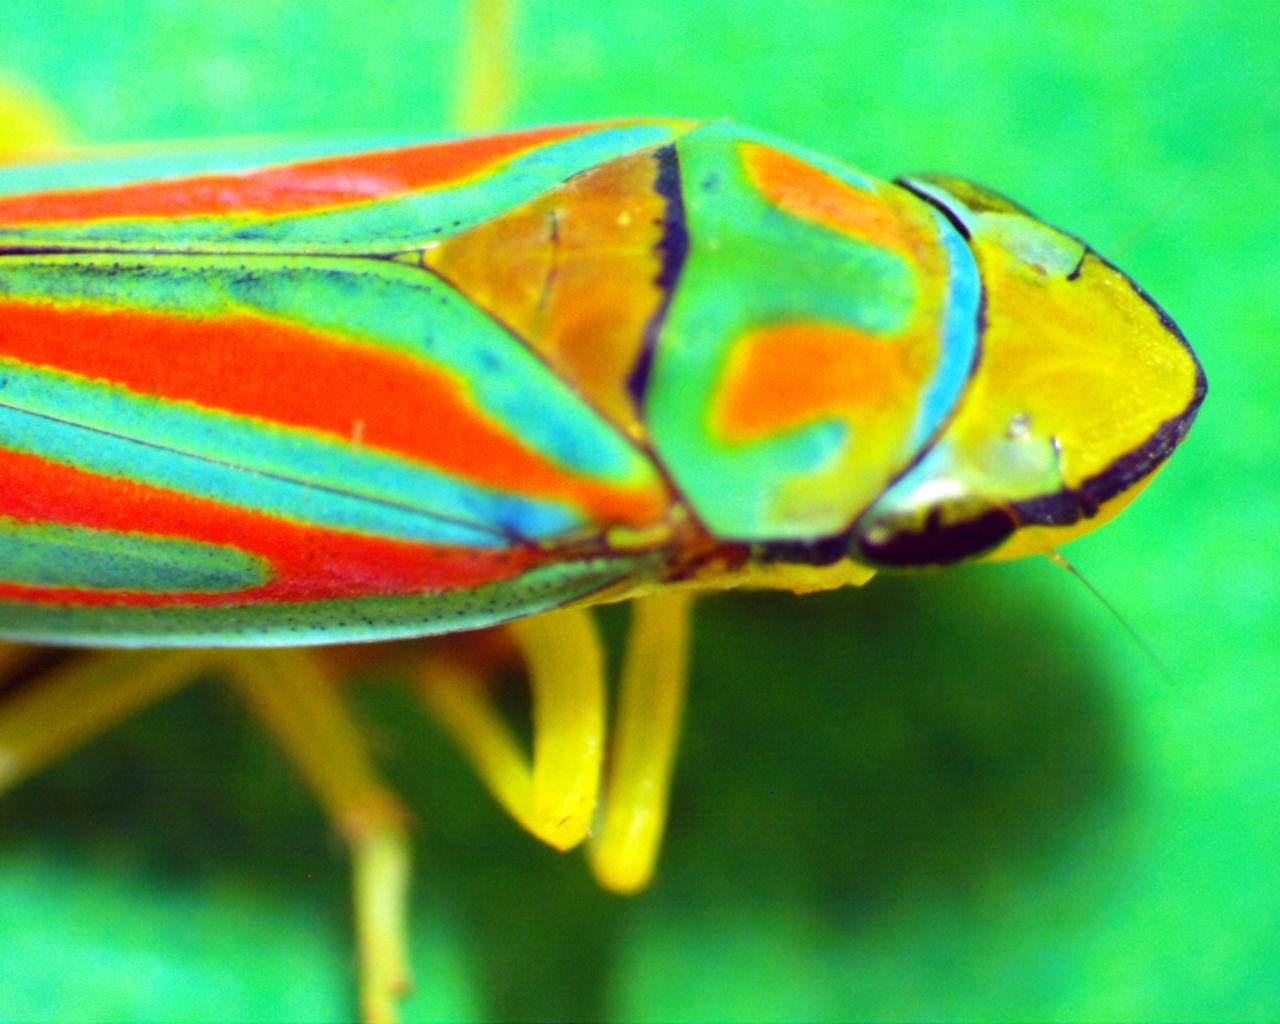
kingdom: Animalia
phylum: Arthropoda
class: Insecta
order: Hemiptera
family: Cicadellidae
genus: Graphocephala
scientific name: Graphocephala coccinea
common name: Candy-striped leafhopper
